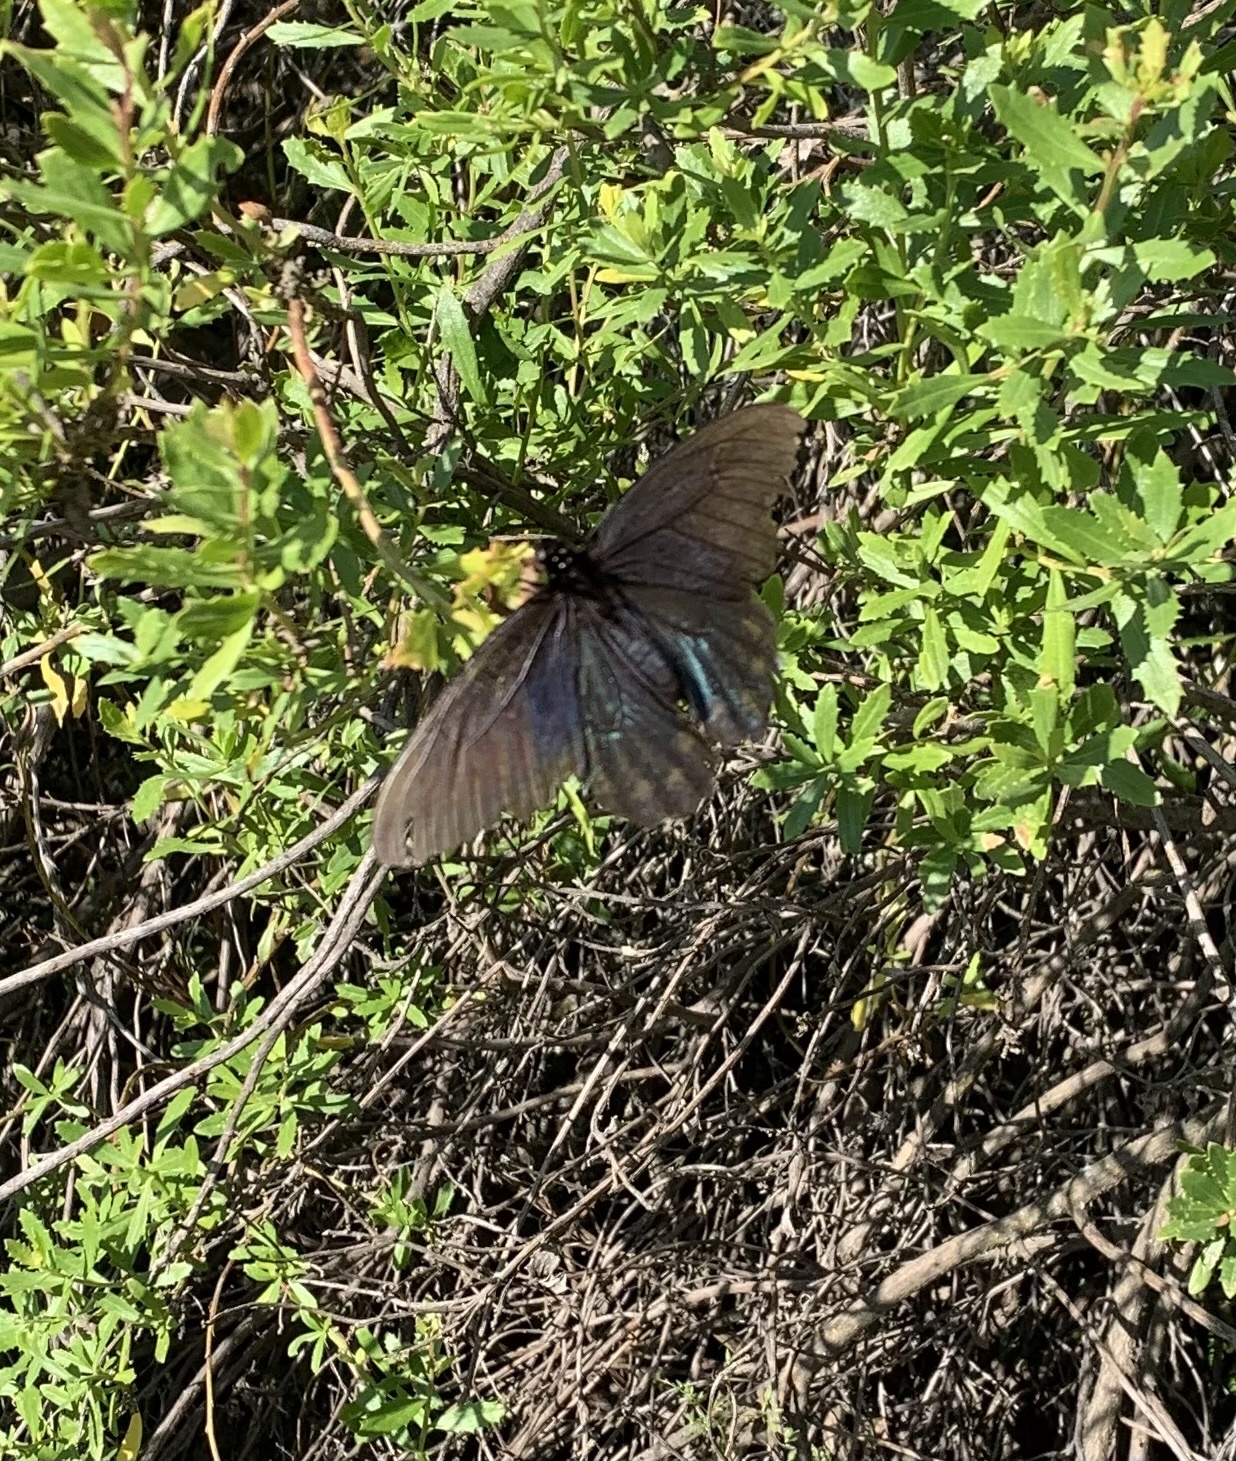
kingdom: Animalia
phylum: Arthropoda
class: Insecta
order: Lepidoptera
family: Papilionidae
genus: Battus
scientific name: Battus philenor
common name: Pipevine swallowtail
